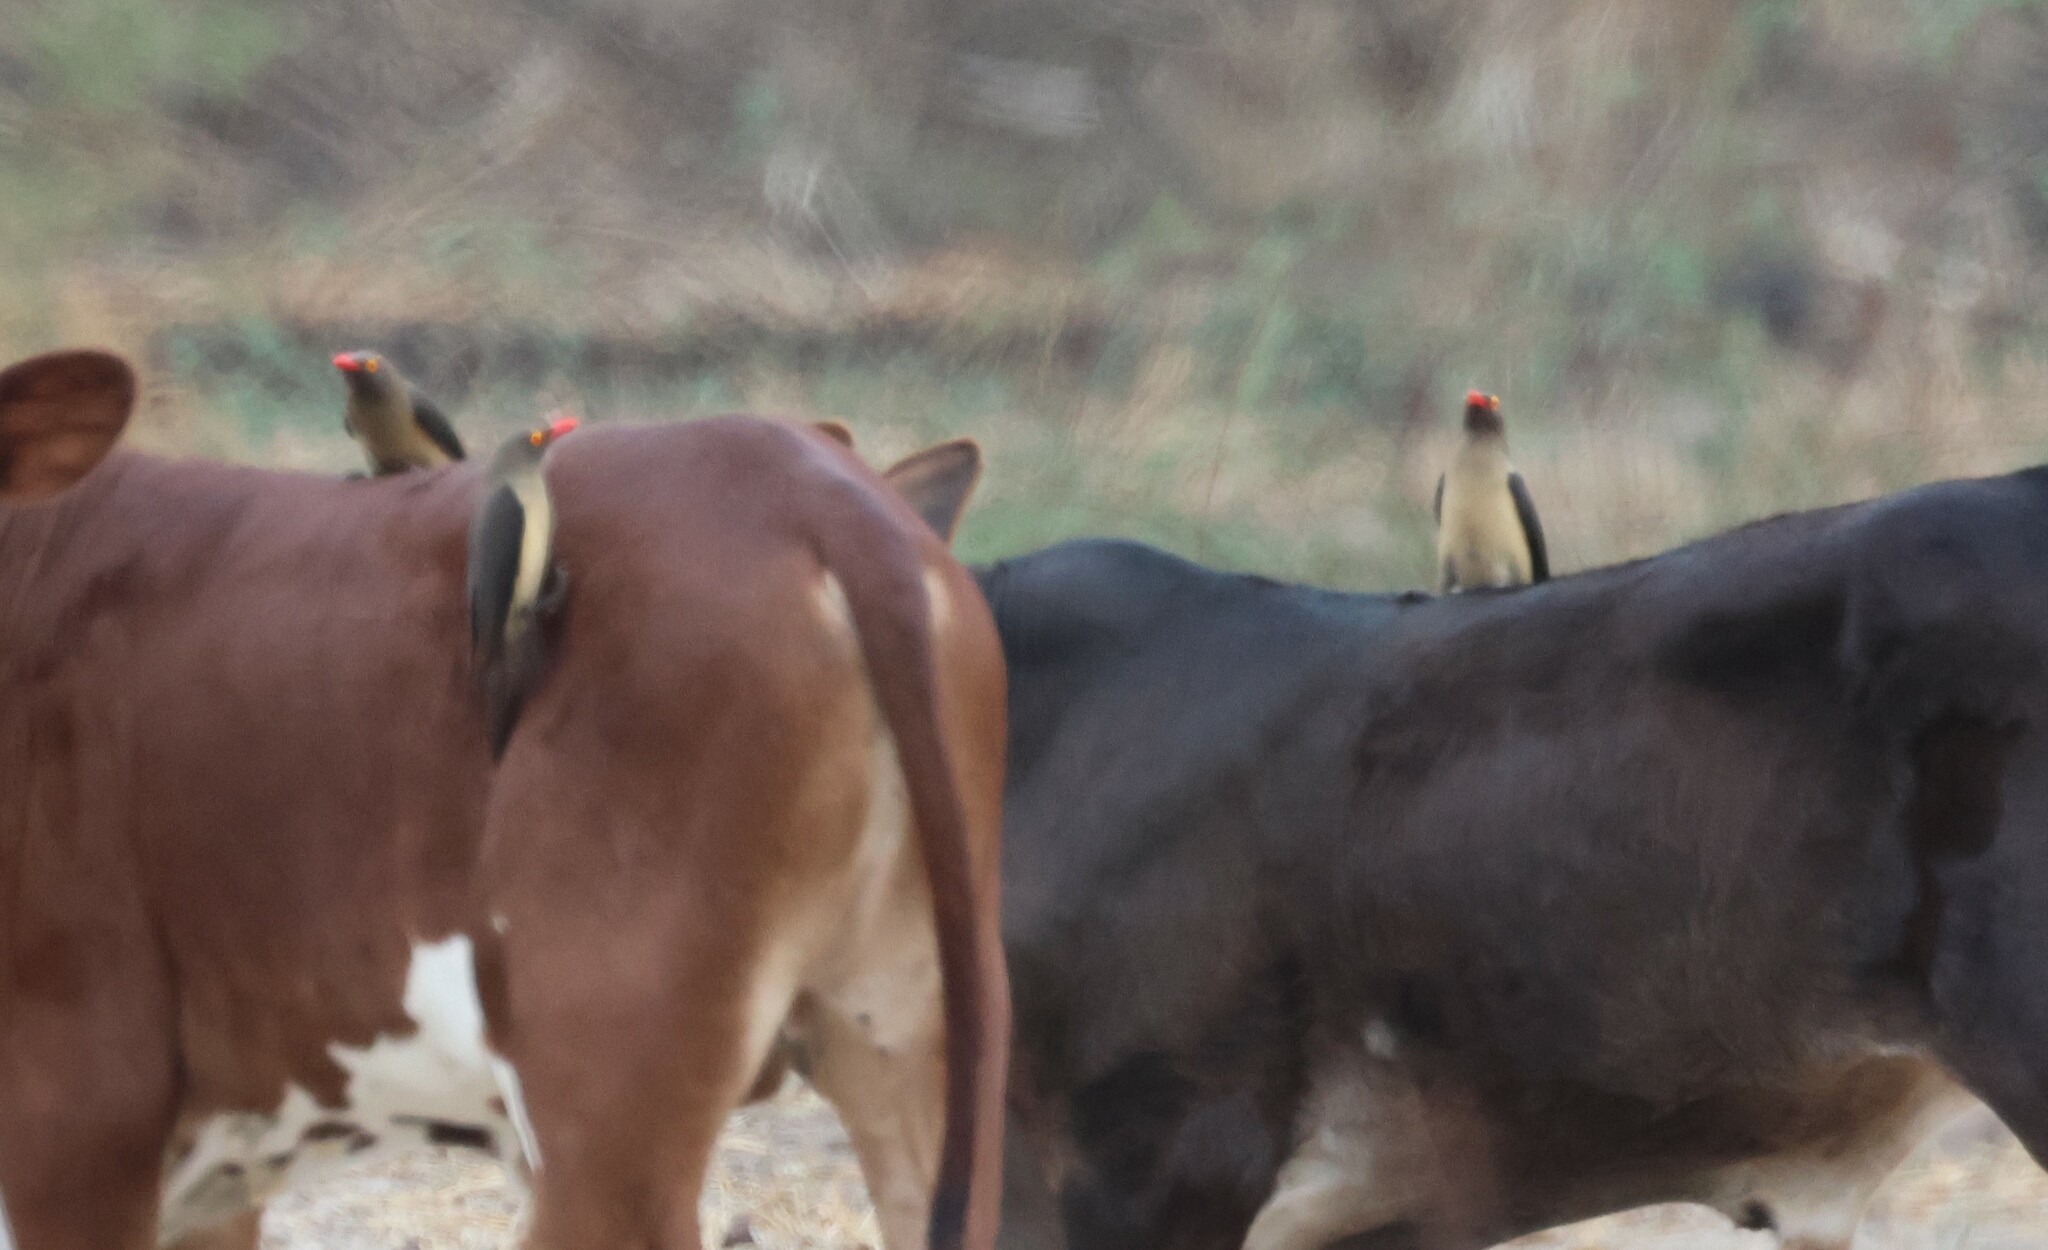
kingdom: Animalia
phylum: Chordata
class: Aves
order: Passeriformes
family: Buphagidae
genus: Buphagus
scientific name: Buphagus erythrorhynchus
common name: Red-billed oxpecker
